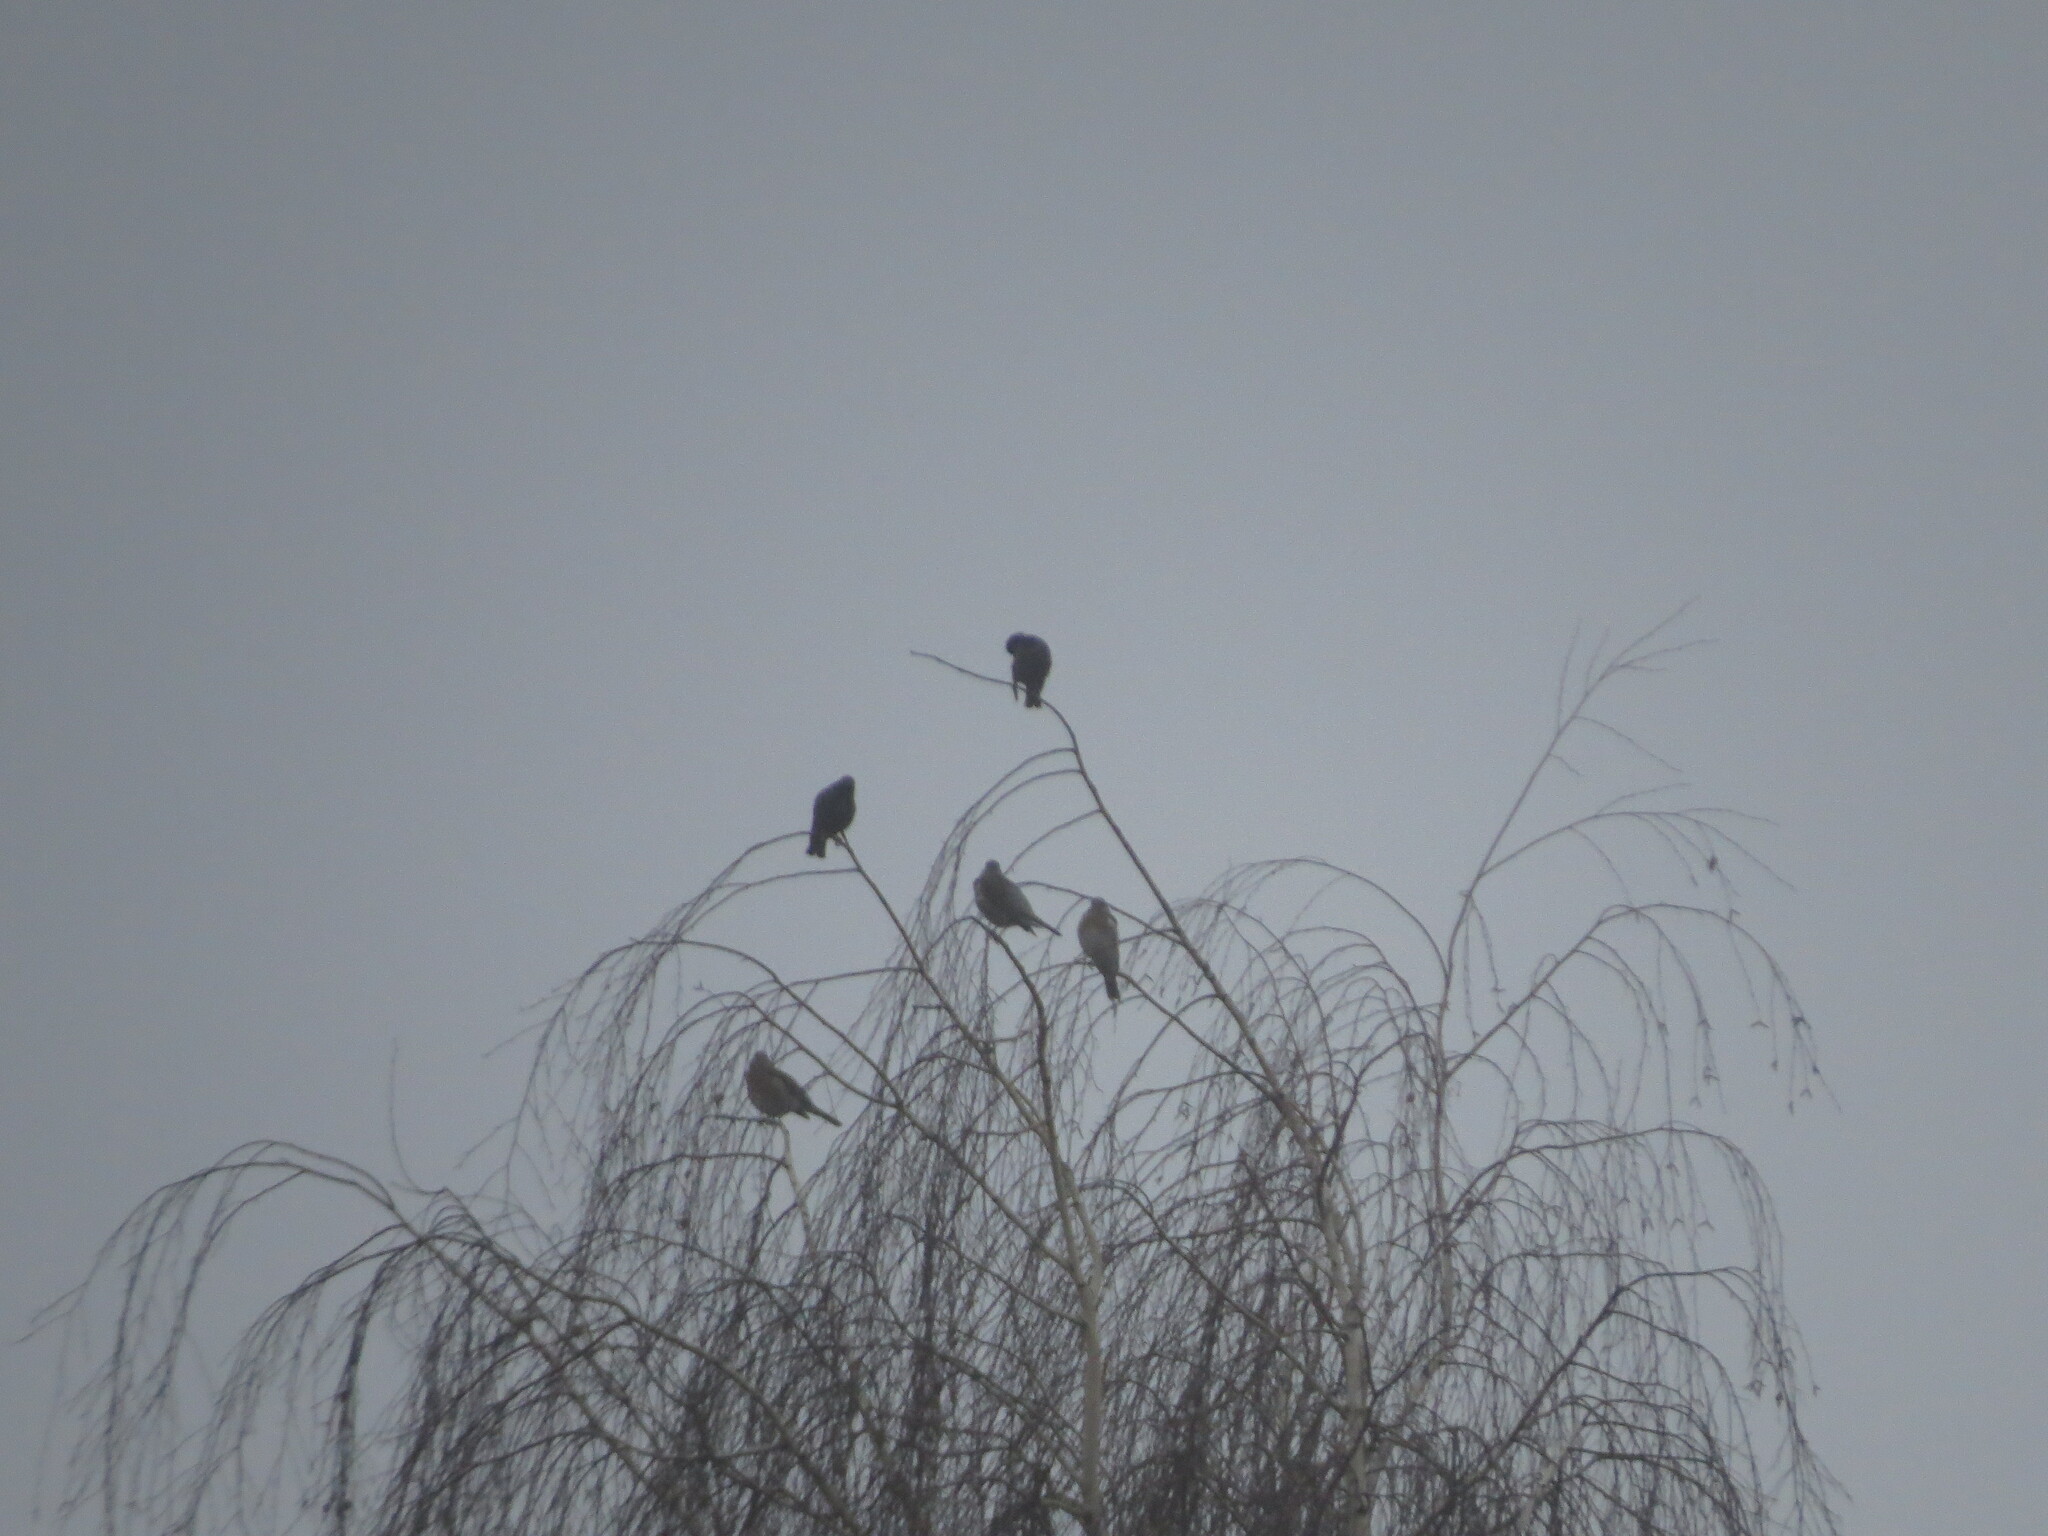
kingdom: Animalia
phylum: Chordata
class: Aves
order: Passeriformes
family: Turdidae
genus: Turdus
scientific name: Turdus pilaris
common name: Fieldfare
